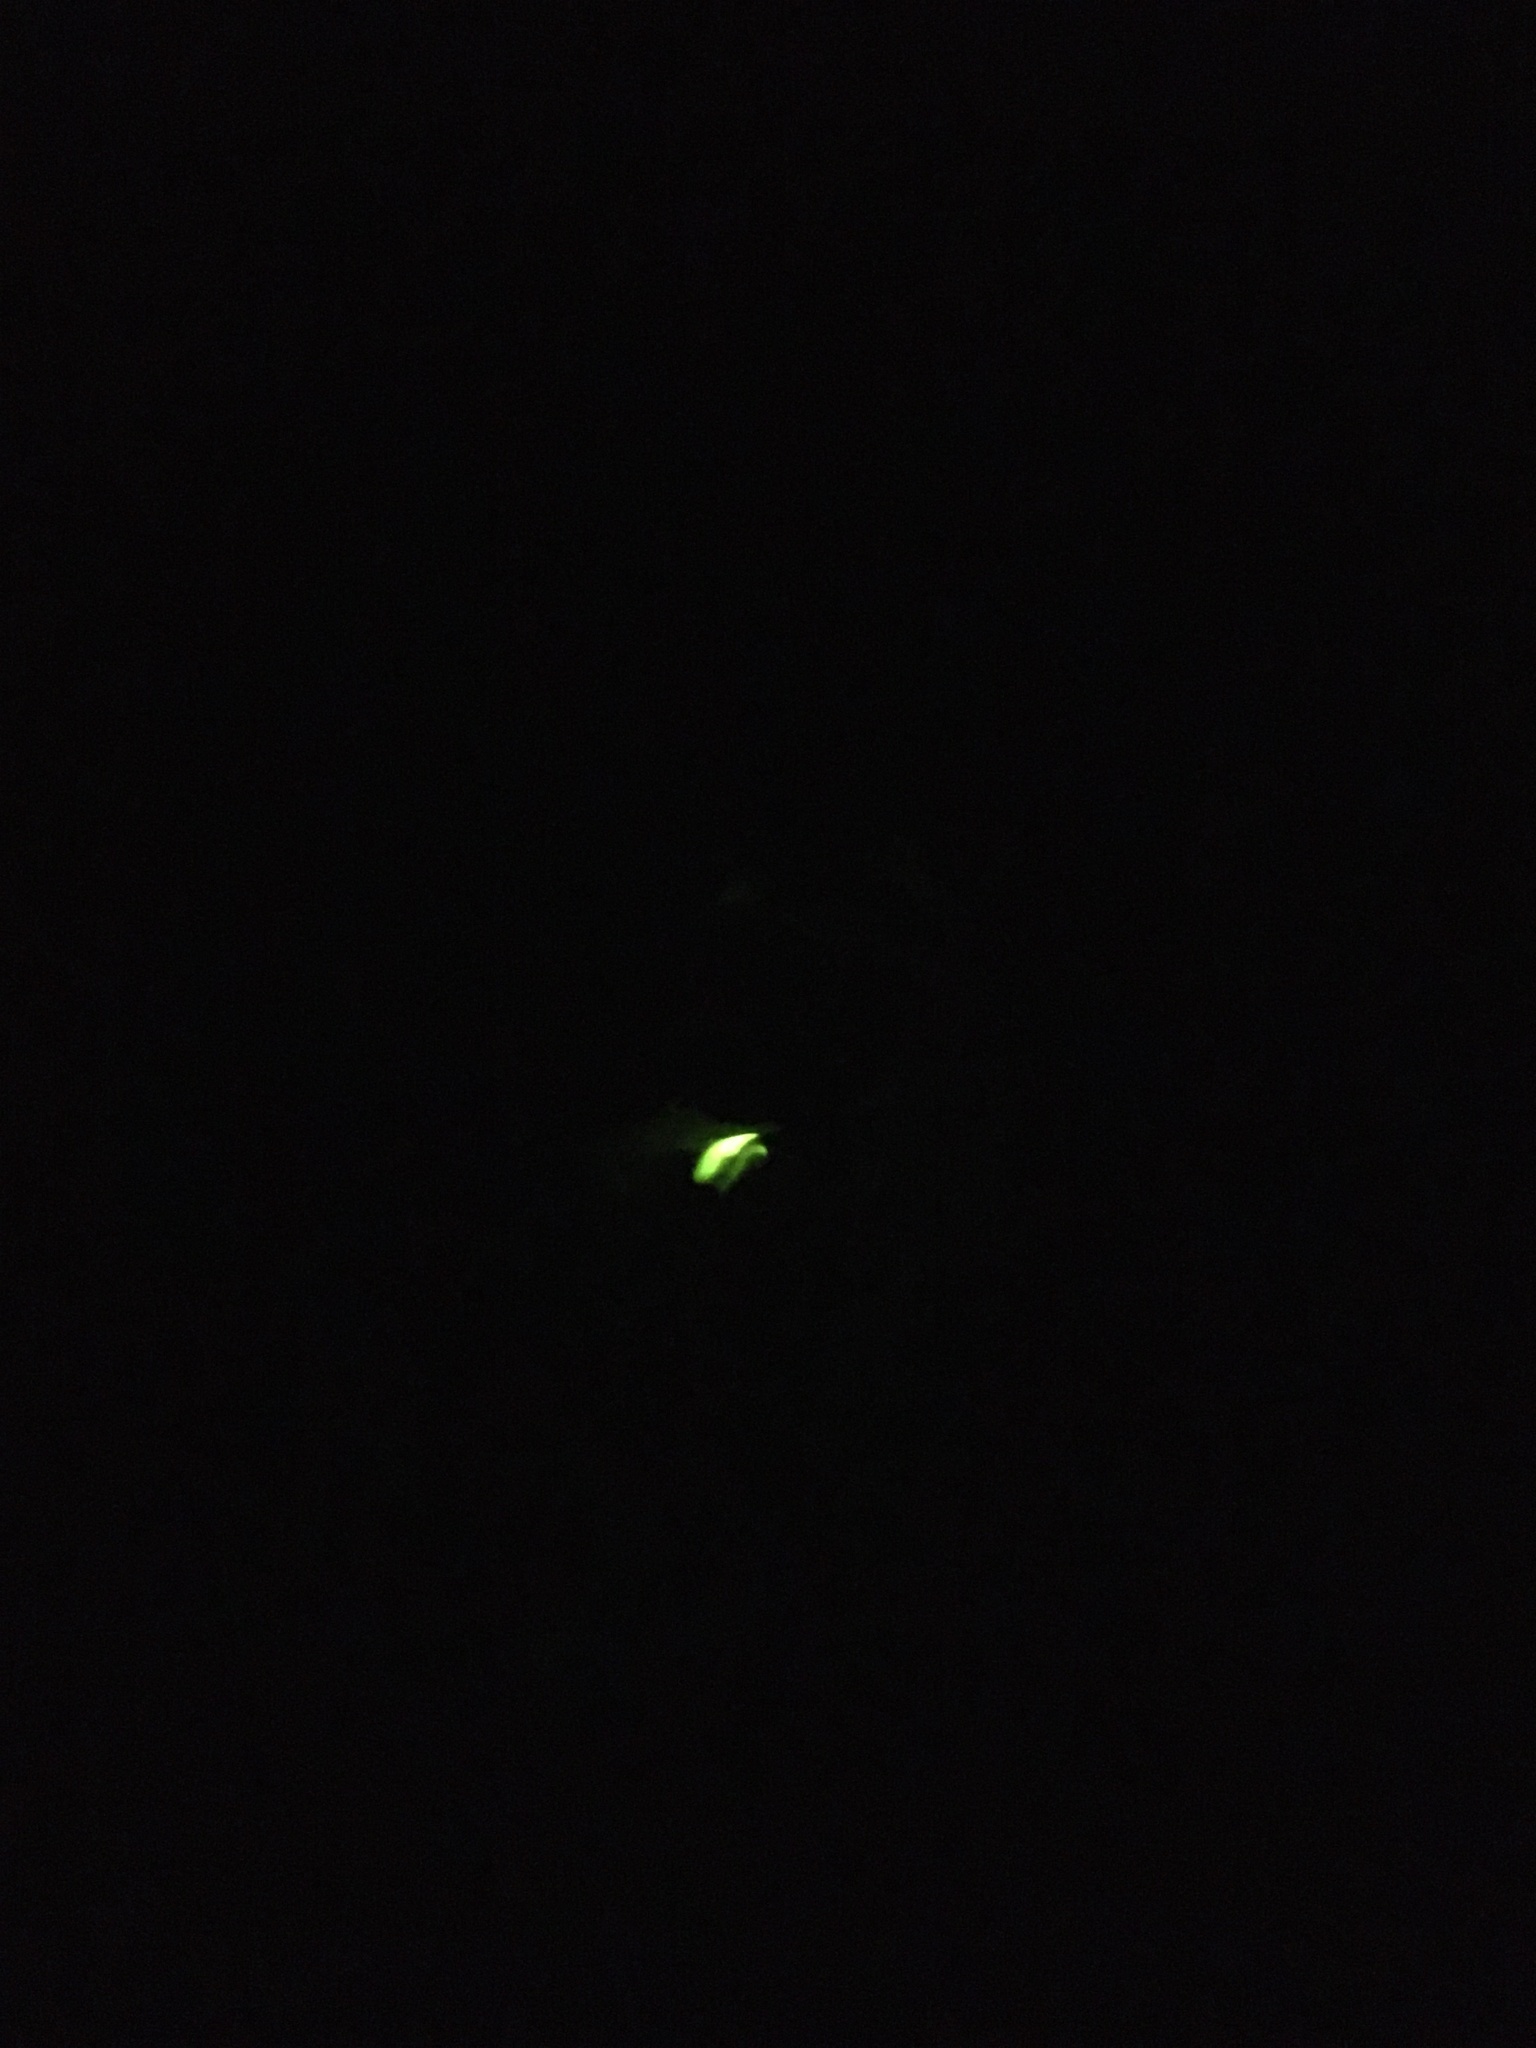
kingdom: Animalia
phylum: Arthropoda
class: Insecta
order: Coleoptera
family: Lampyridae
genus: Lampyris
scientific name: Lampyris noctiluca
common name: Glow-worm
